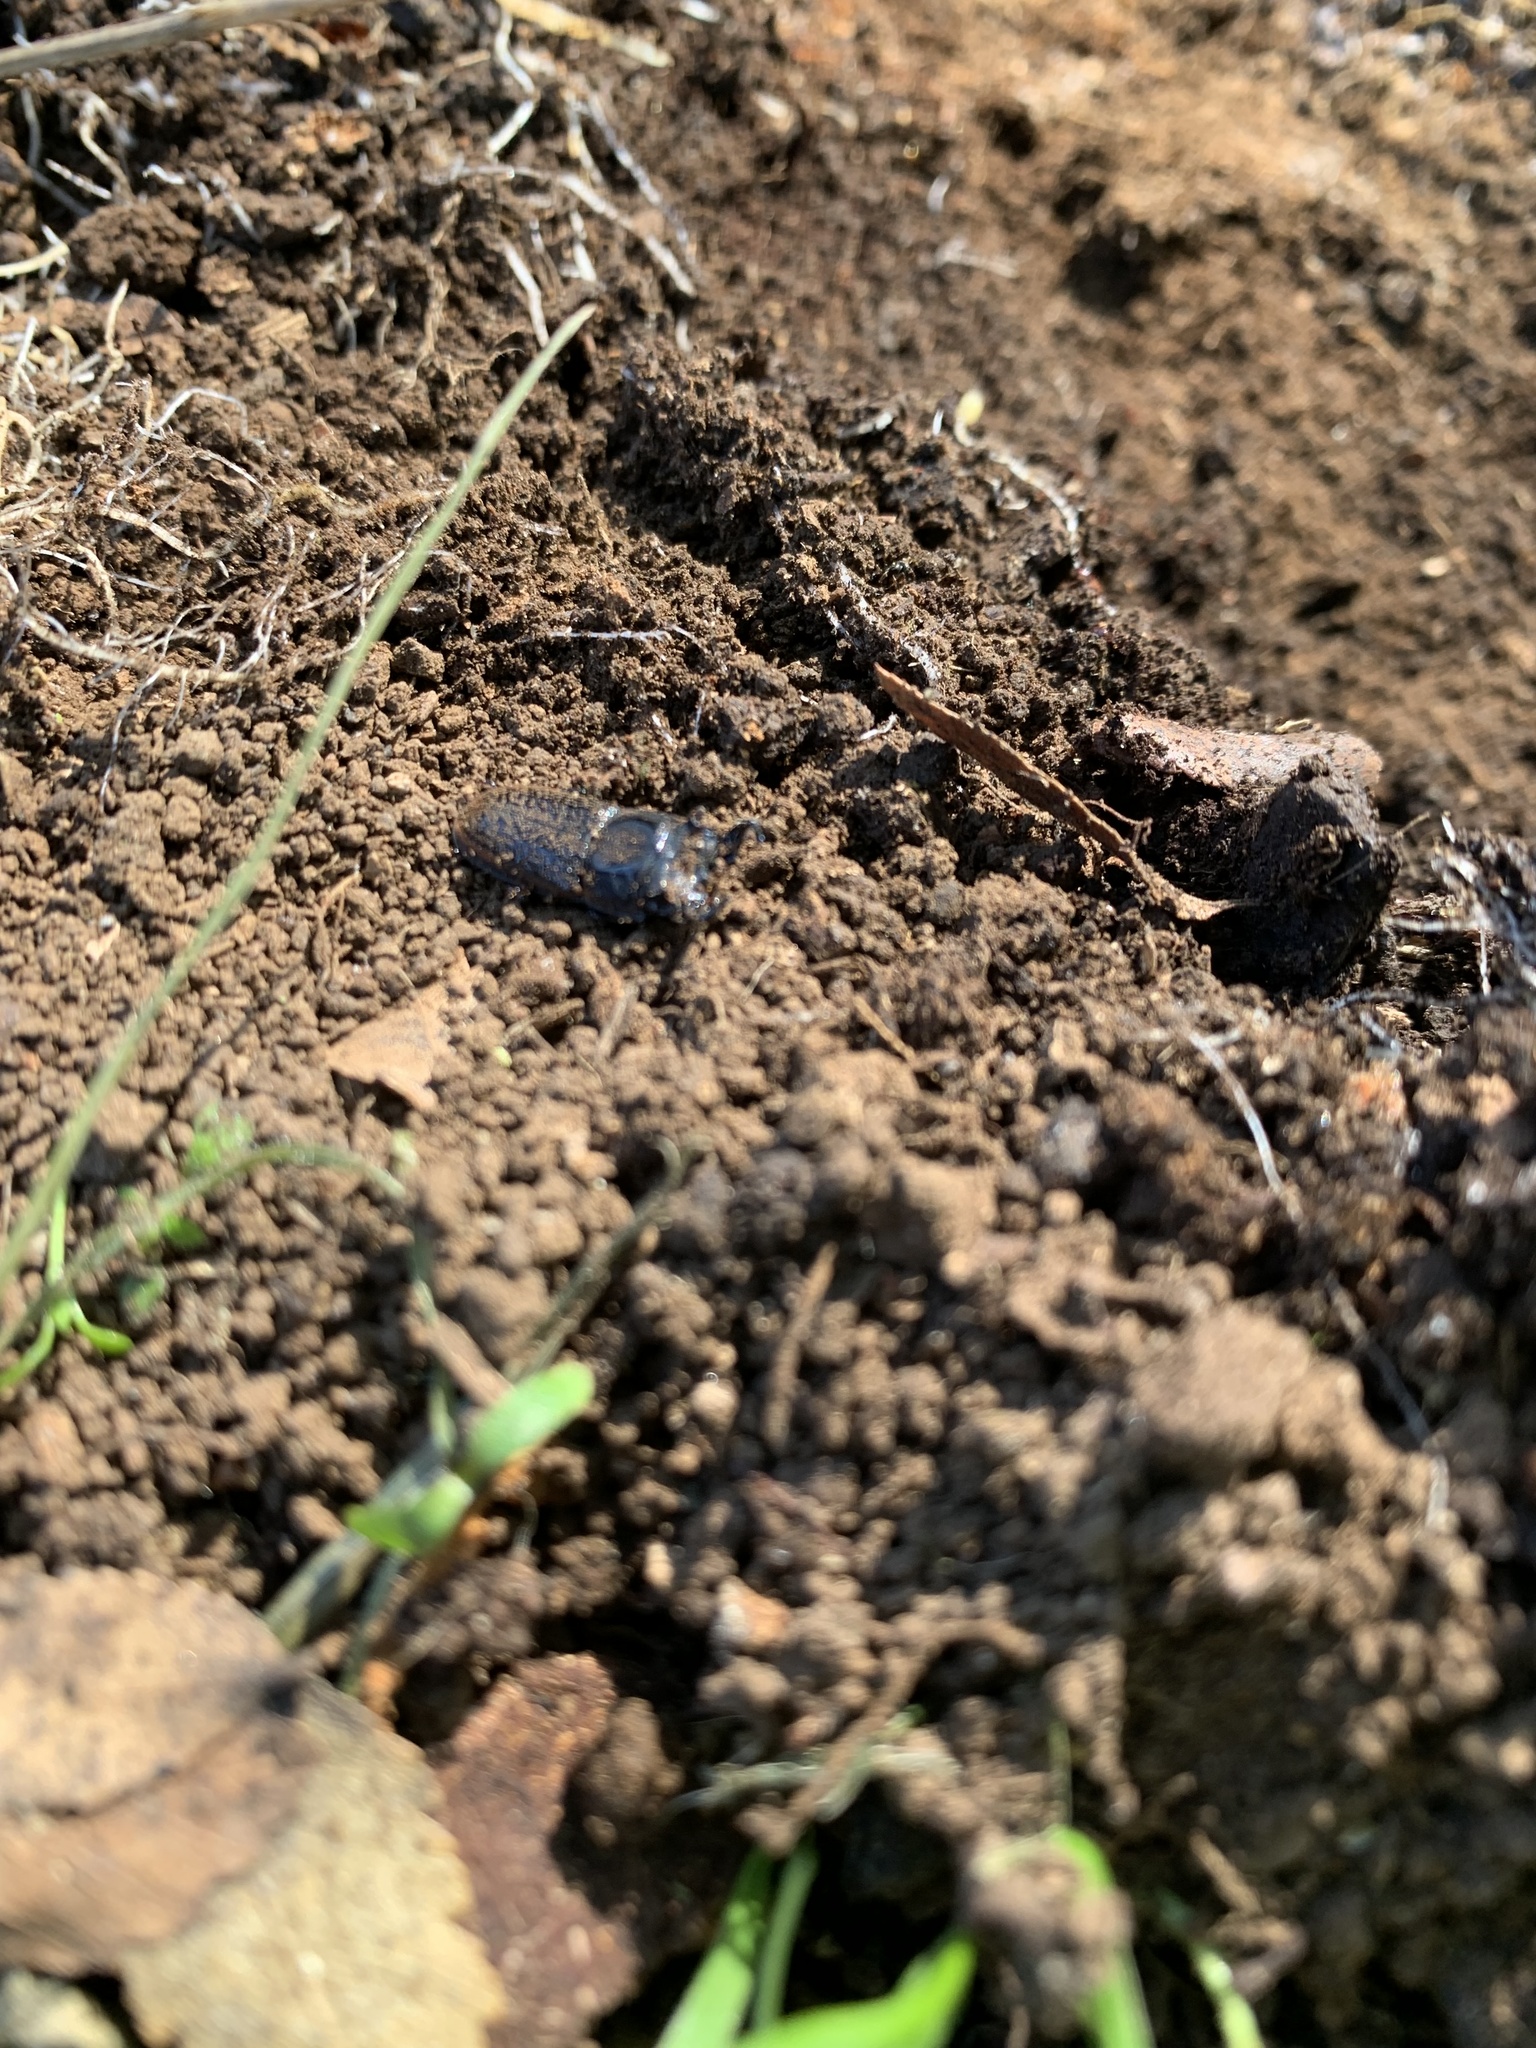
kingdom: Animalia
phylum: Arthropoda
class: Insecta
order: Coleoptera
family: Lucanidae
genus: Pycnosiphorus
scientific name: Pycnosiphorus lessonii
